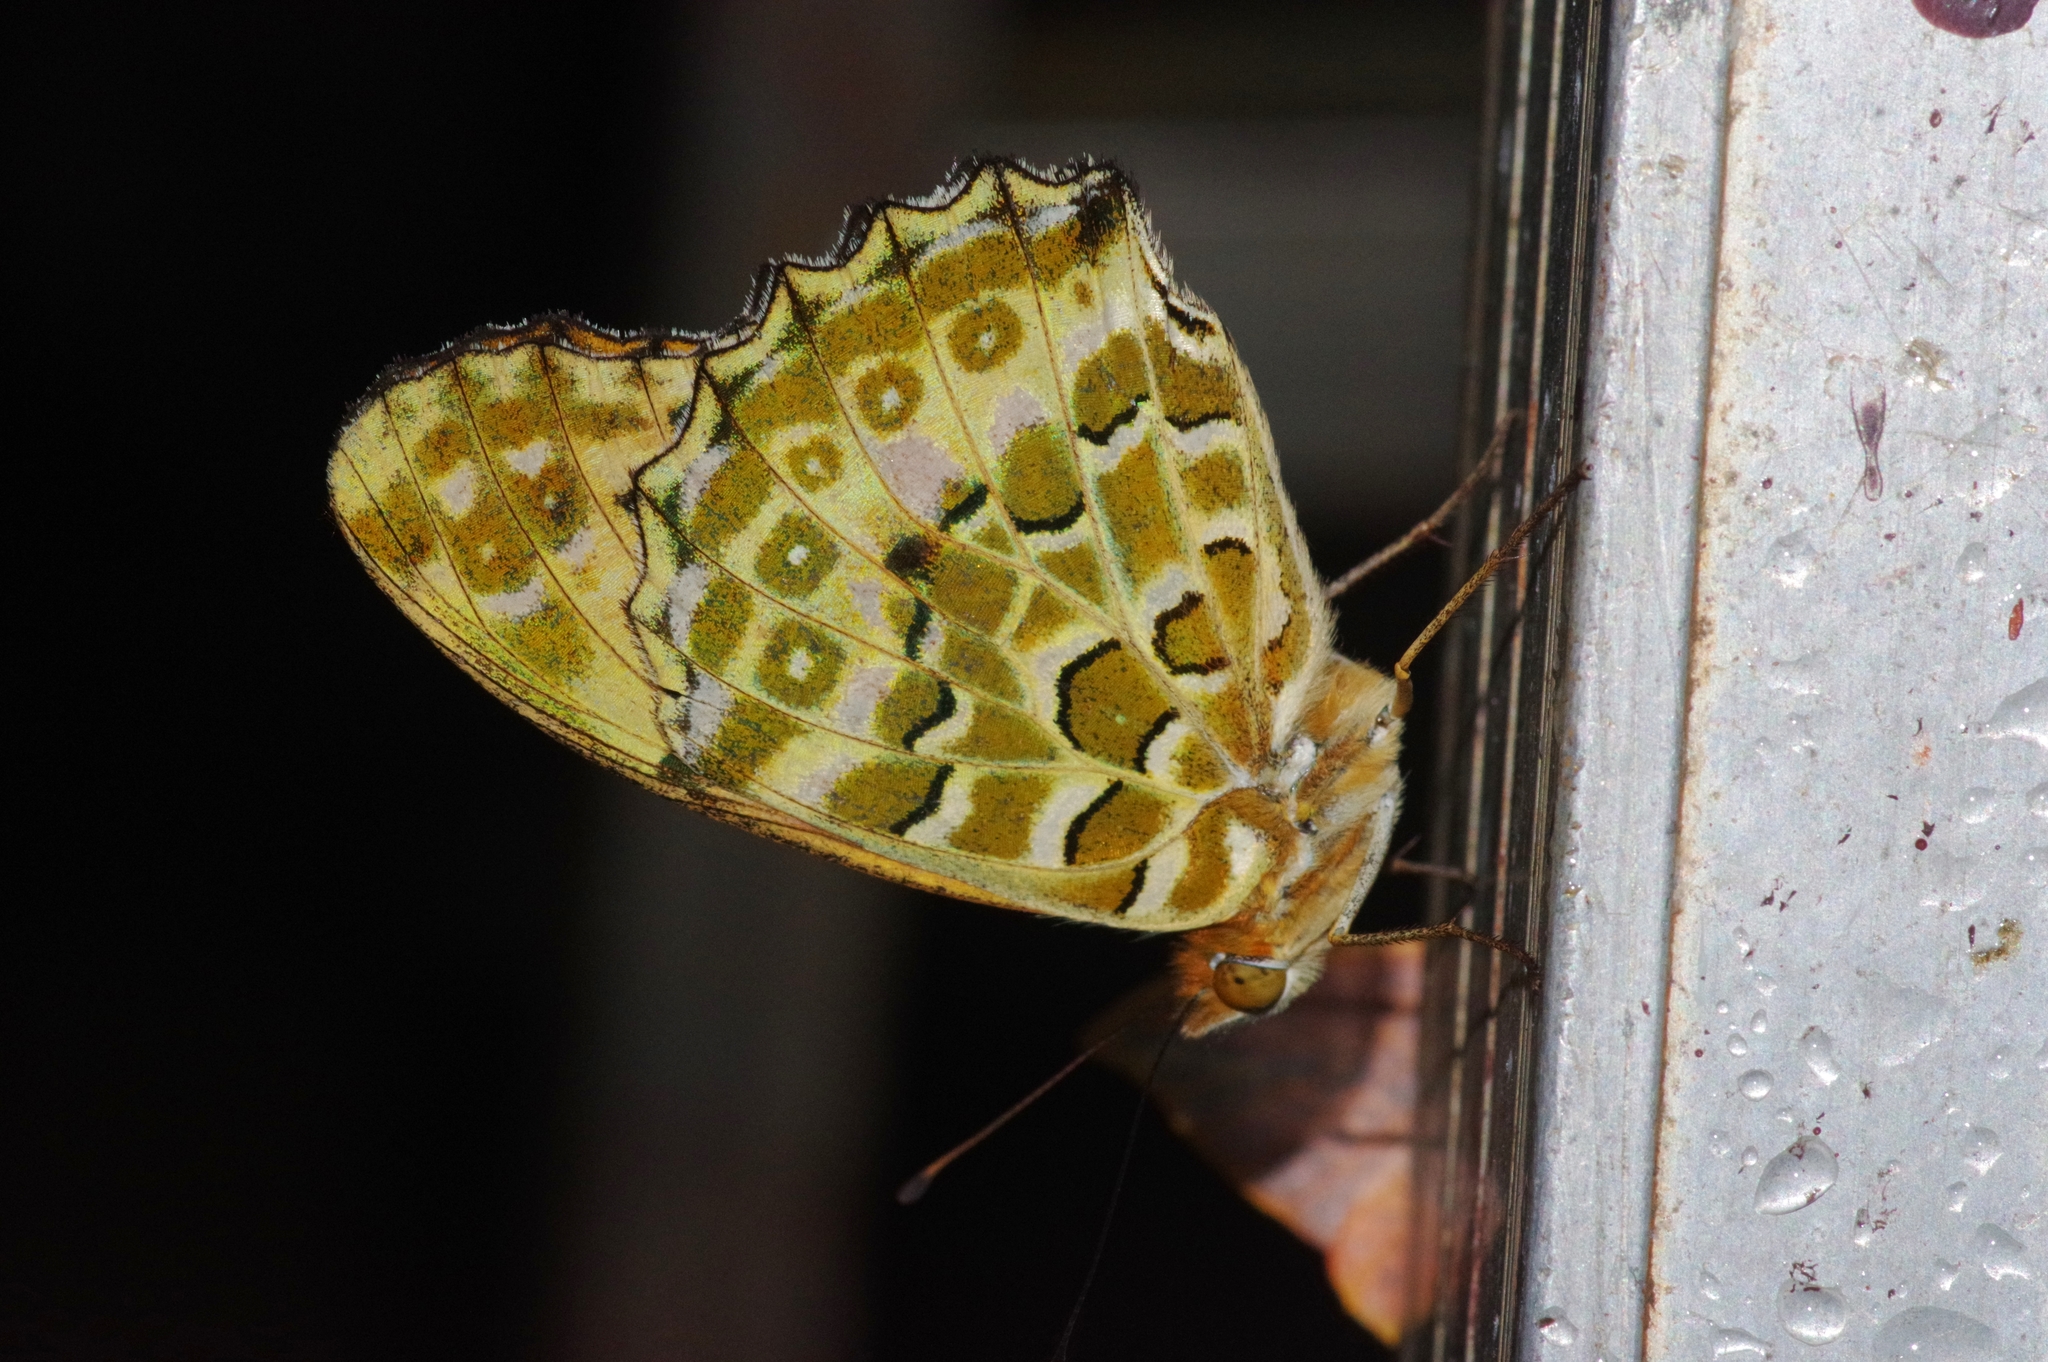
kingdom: Animalia
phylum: Arthropoda
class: Insecta
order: Lepidoptera
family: Nymphalidae
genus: Argynnis
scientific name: Argynnis hyperbius
